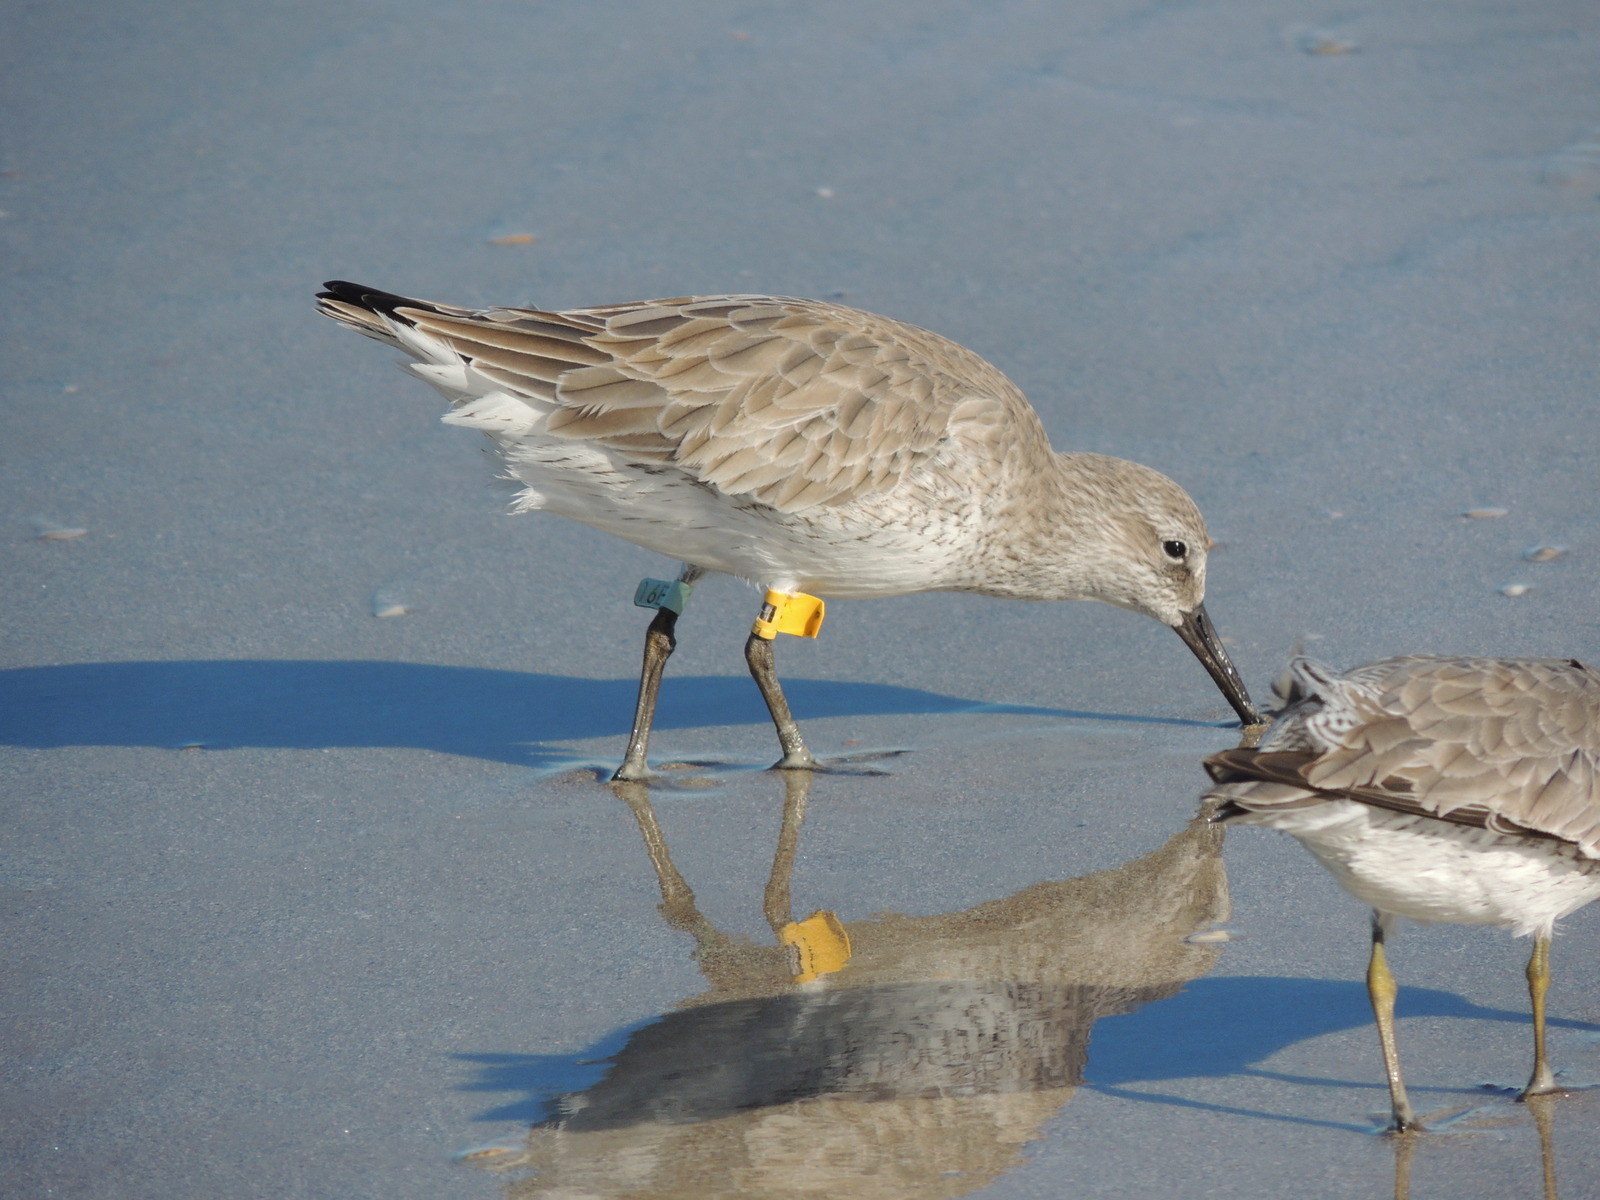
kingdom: Animalia
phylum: Chordata
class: Aves
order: Charadriiformes
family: Scolopacidae
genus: Calidris
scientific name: Calidris canutus
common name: Red knot
